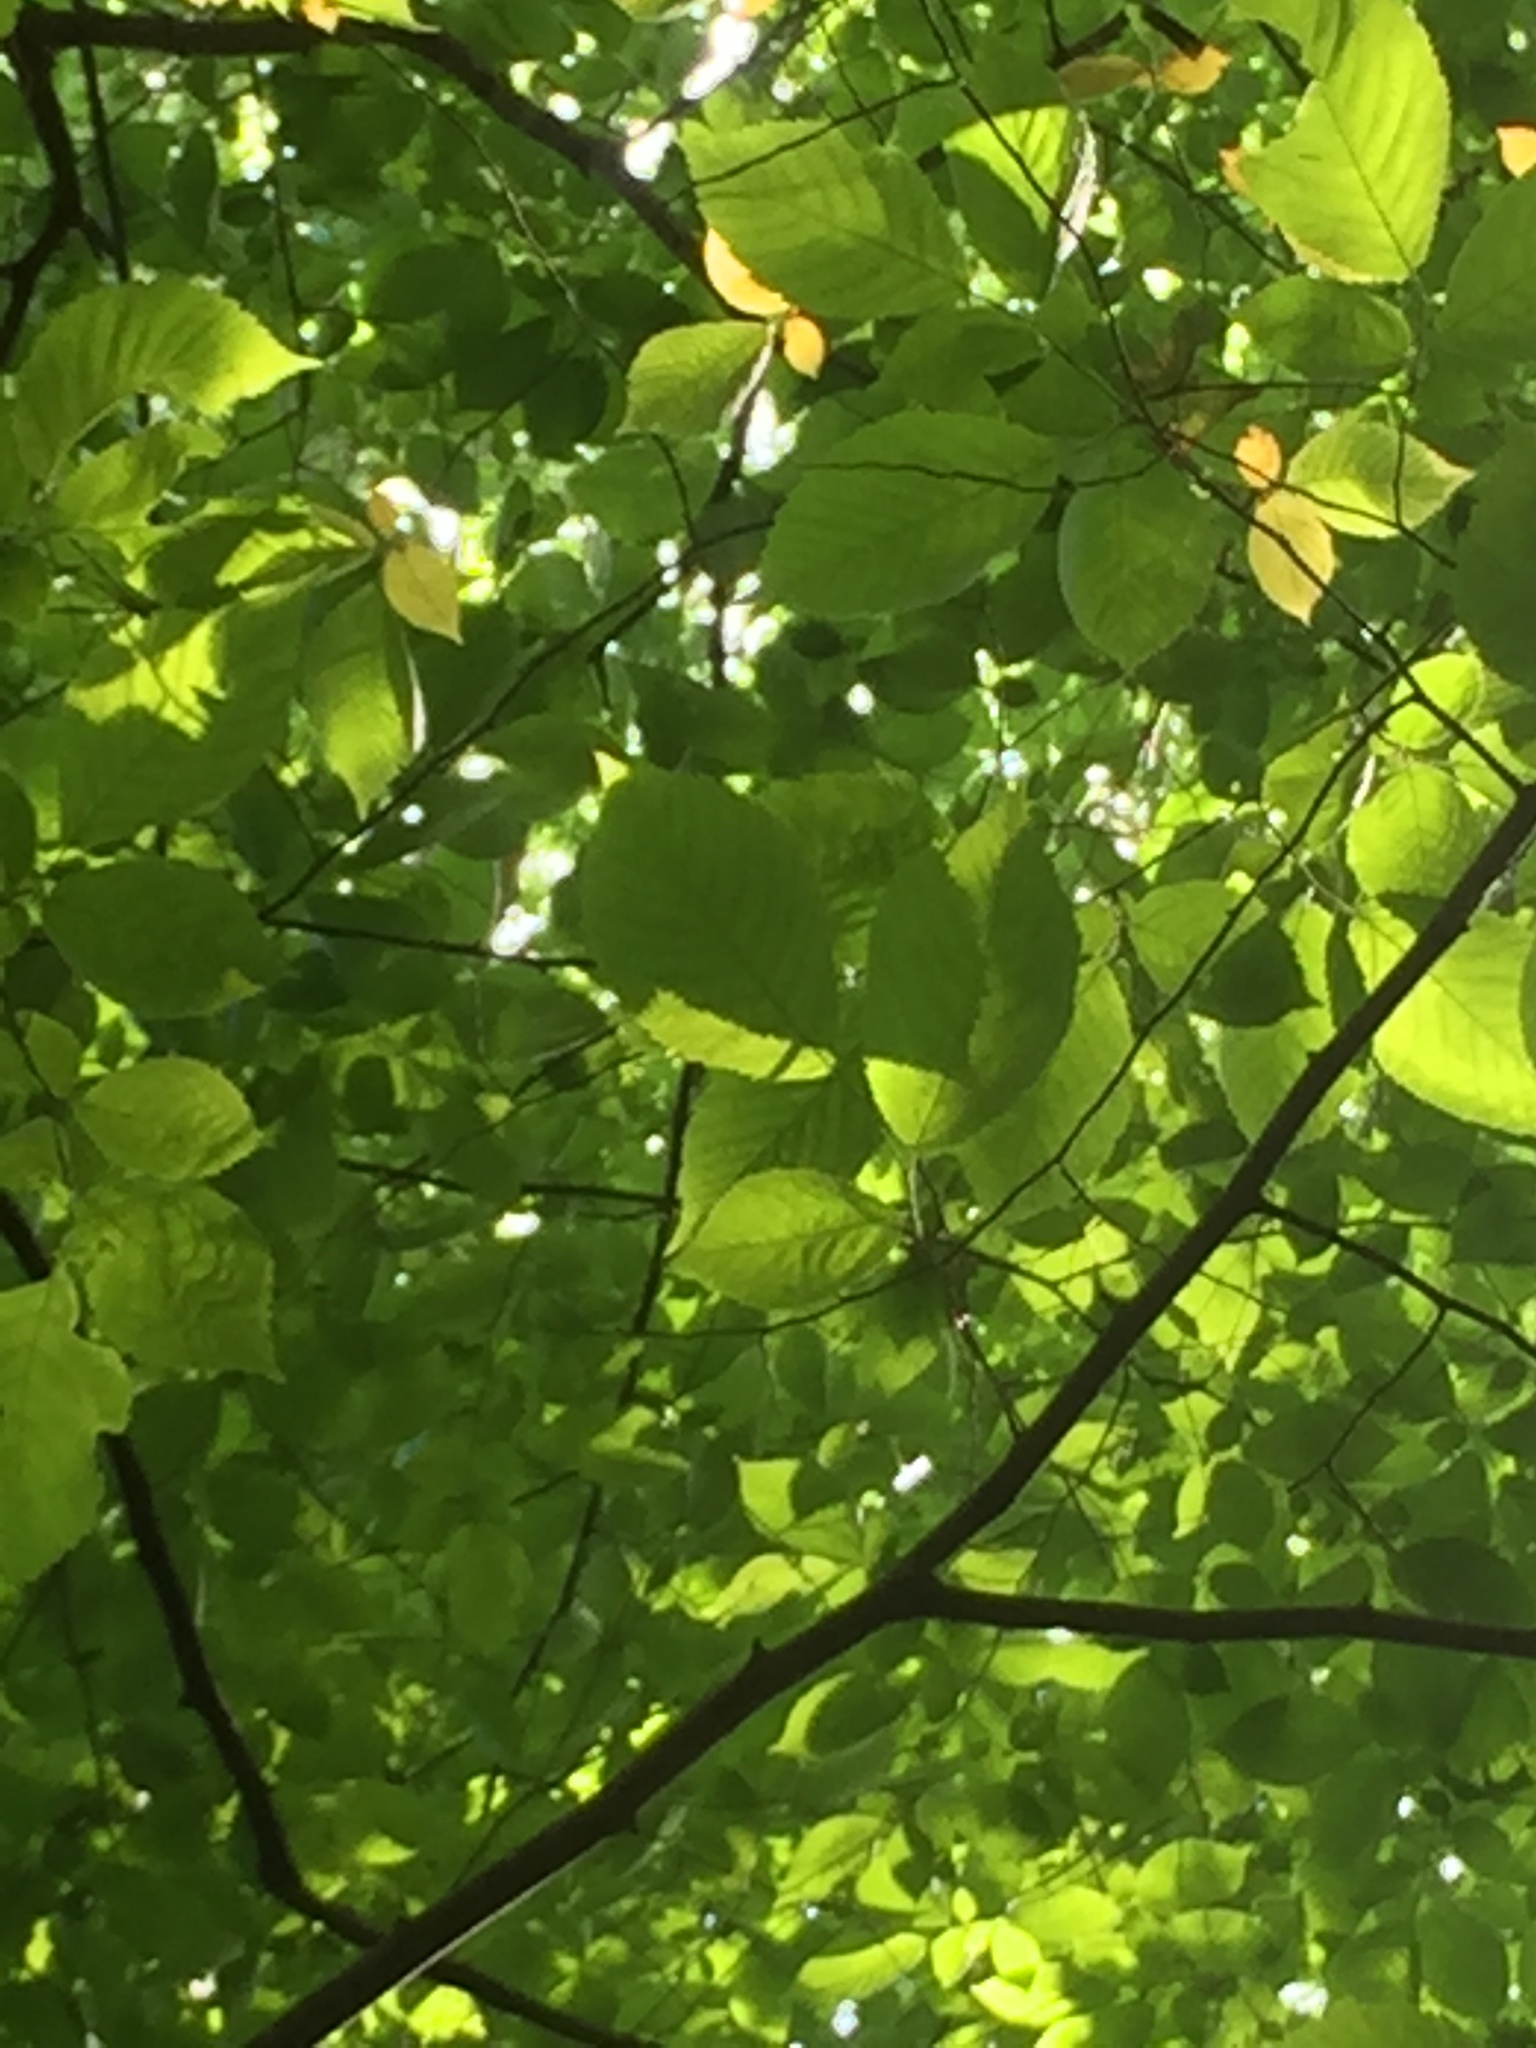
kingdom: Plantae
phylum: Tracheophyta
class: Magnoliopsida
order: Fagales
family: Betulaceae
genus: Ostrya
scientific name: Ostrya virginiana
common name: Ironwood
